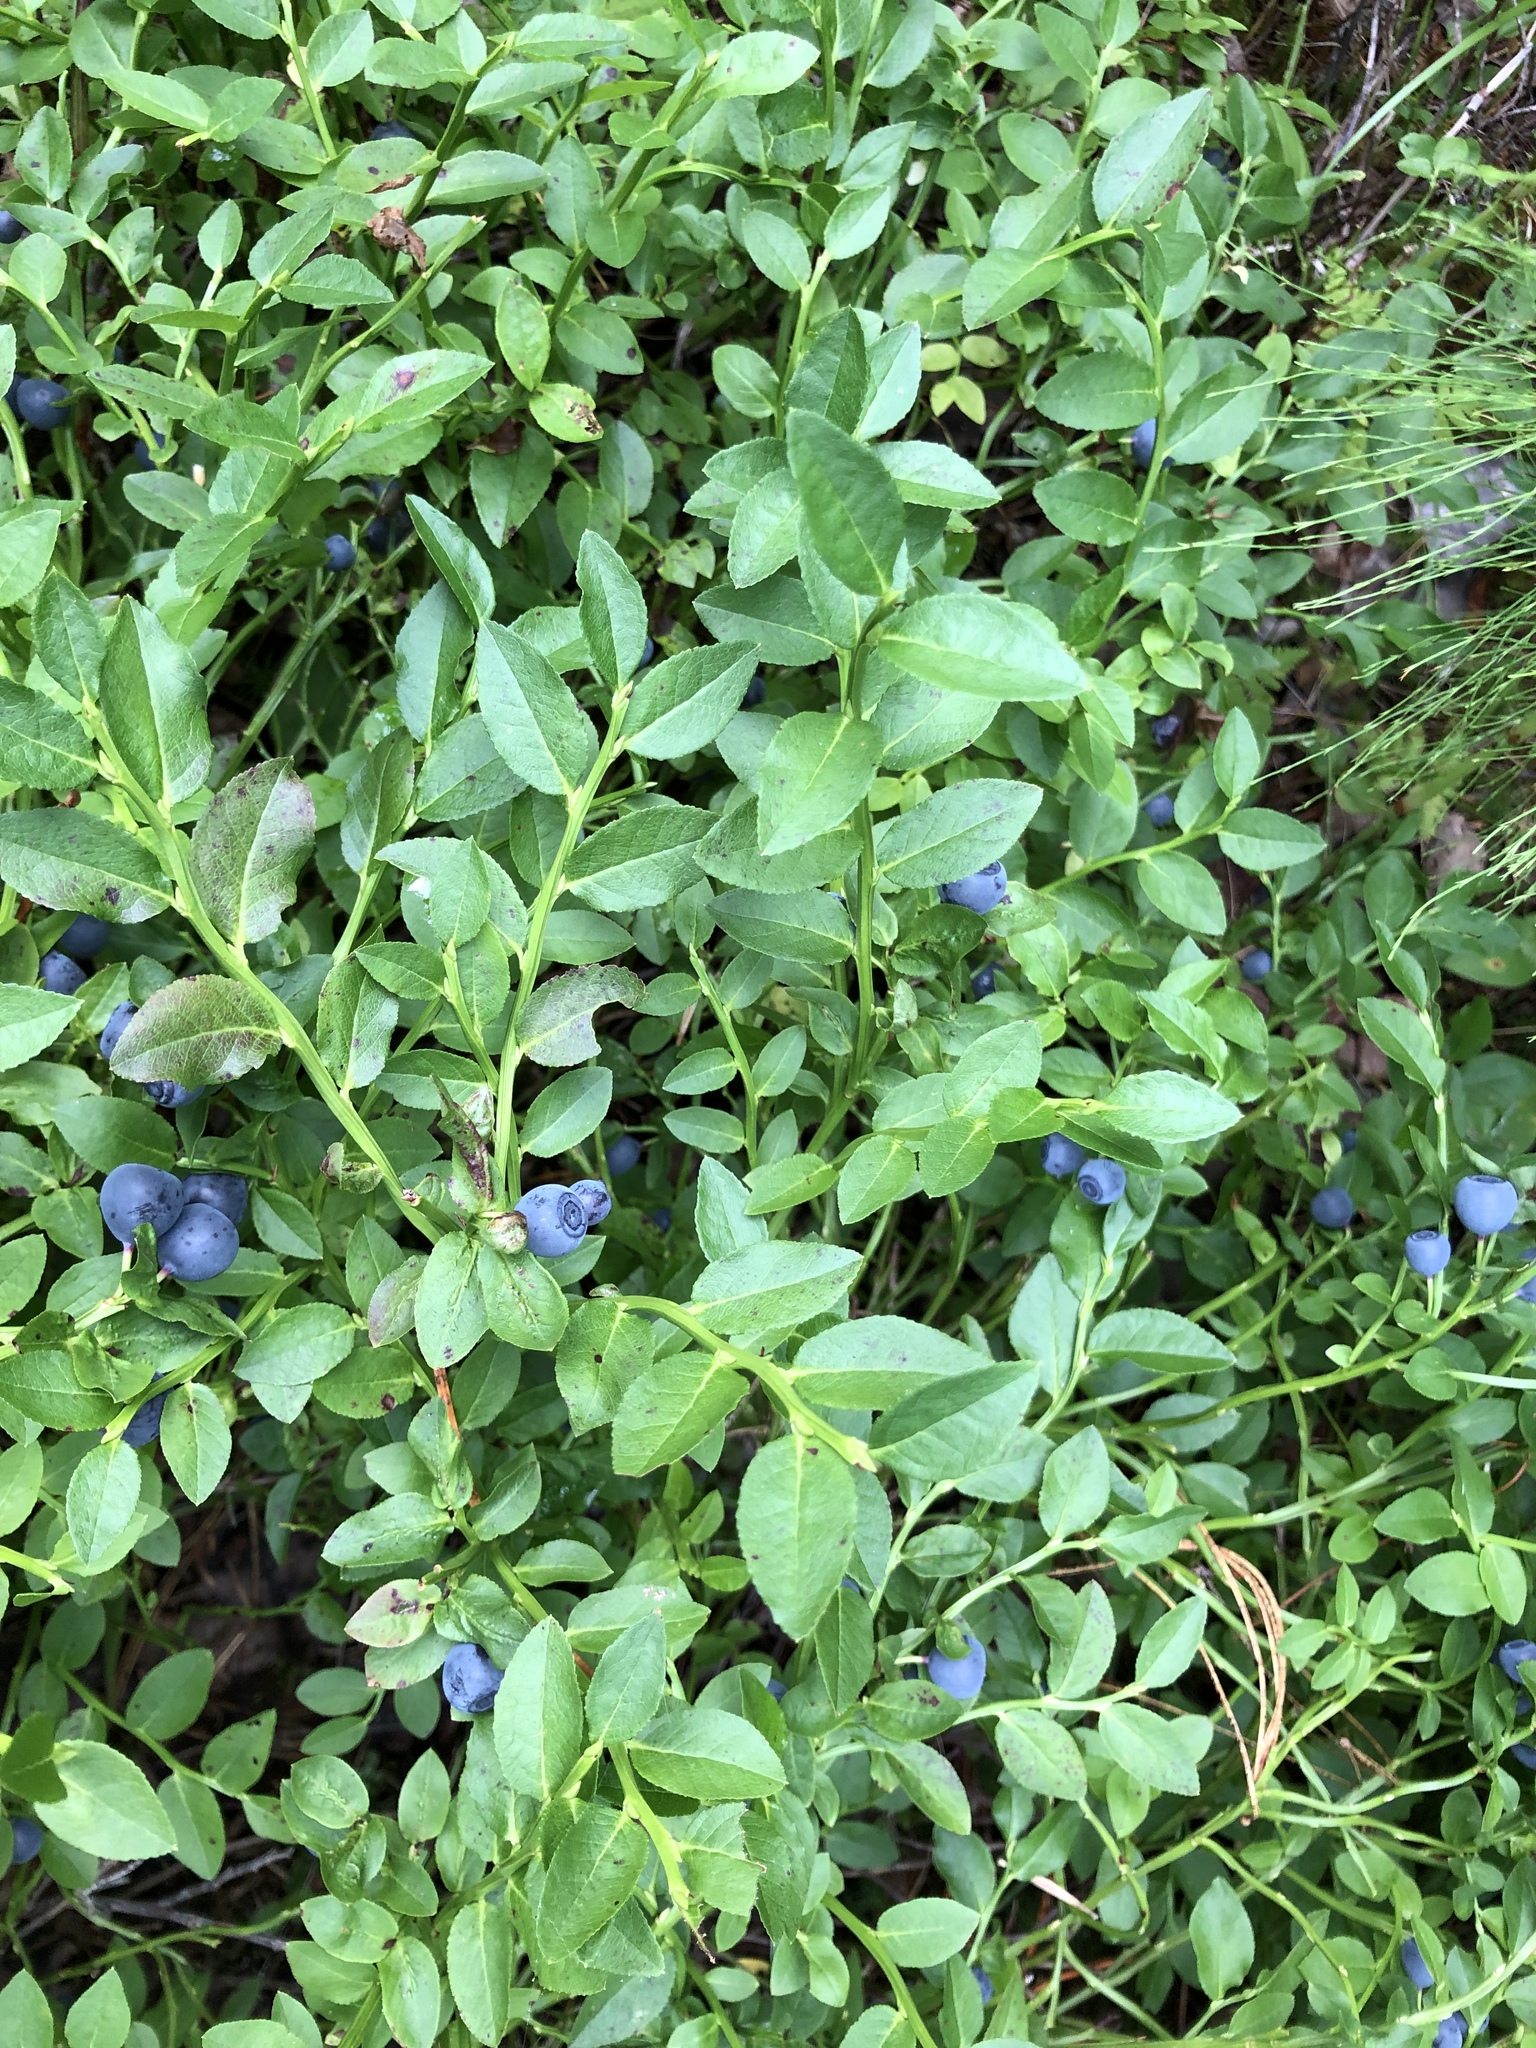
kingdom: Plantae
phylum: Tracheophyta
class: Magnoliopsida
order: Ericales
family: Ericaceae
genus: Vaccinium
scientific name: Vaccinium myrtillus
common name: Bilberry
